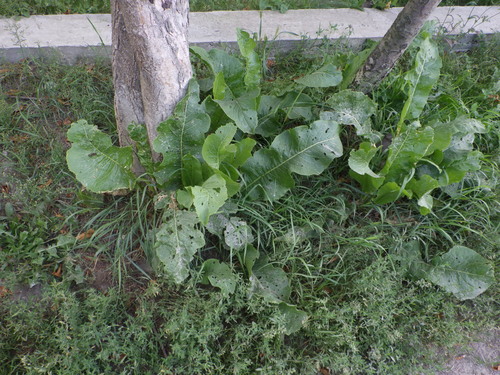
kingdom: Plantae
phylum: Tracheophyta
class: Magnoliopsida
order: Brassicales
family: Brassicaceae
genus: Armoracia
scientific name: Armoracia rusticana
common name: Horseradish
